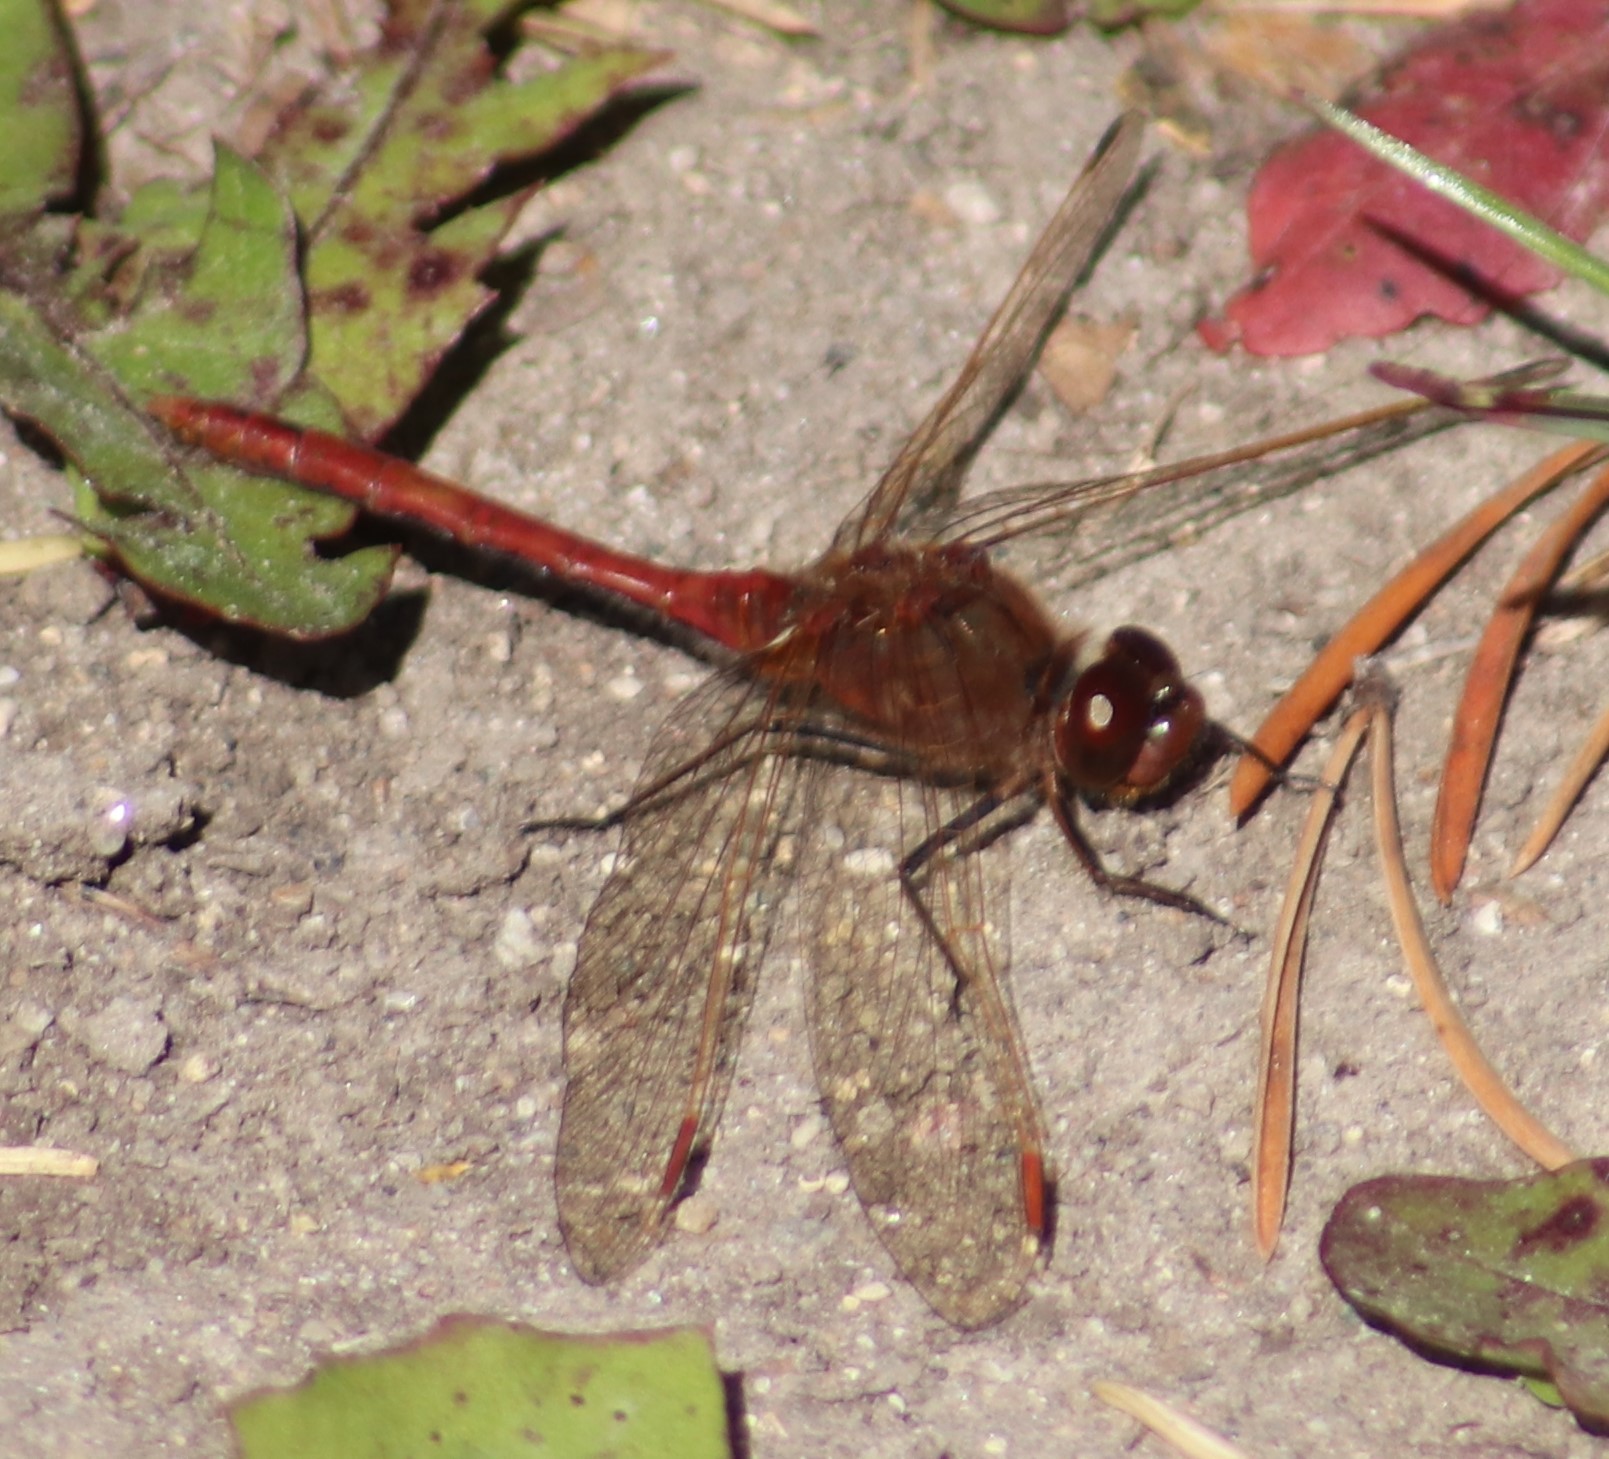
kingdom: Animalia
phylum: Arthropoda
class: Insecta
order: Odonata
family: Libellulidae
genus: Sympetrum
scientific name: Sympetrum costiferum
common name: Saffron-winged meadowhawk
